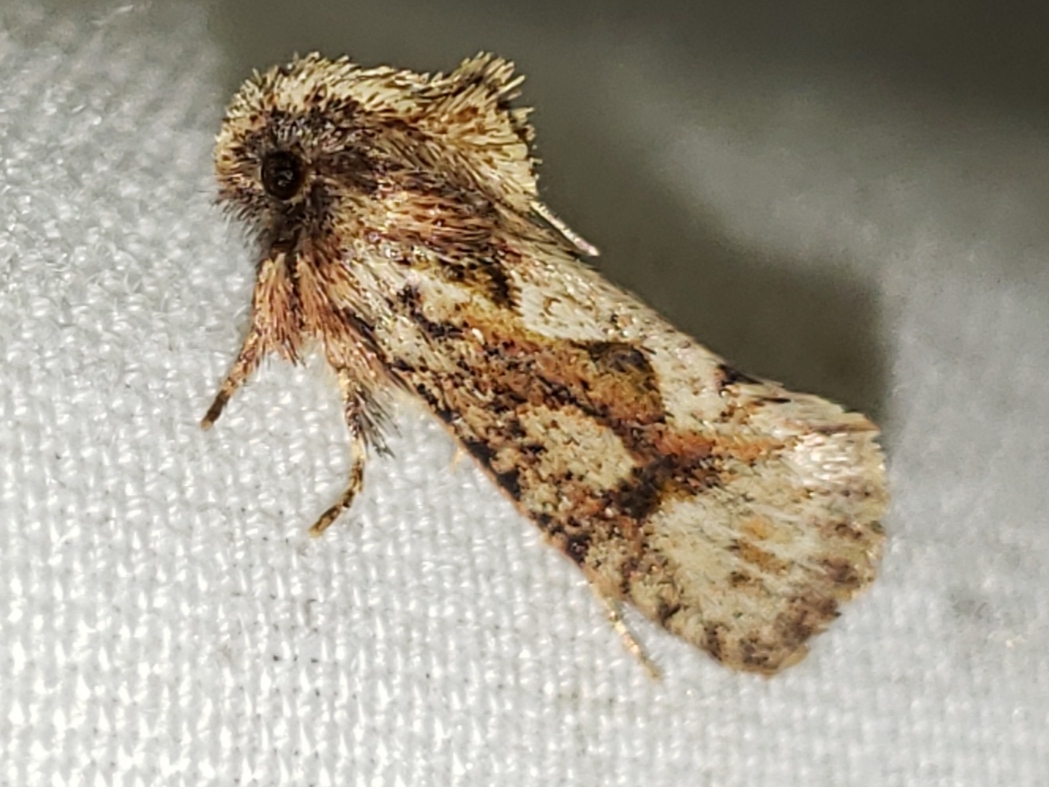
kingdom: Animalia
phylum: Arthropoda
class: Insecta
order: Lepidoptera
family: Tineidae
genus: Acrolophus
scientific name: Acrolophus walsinghami
